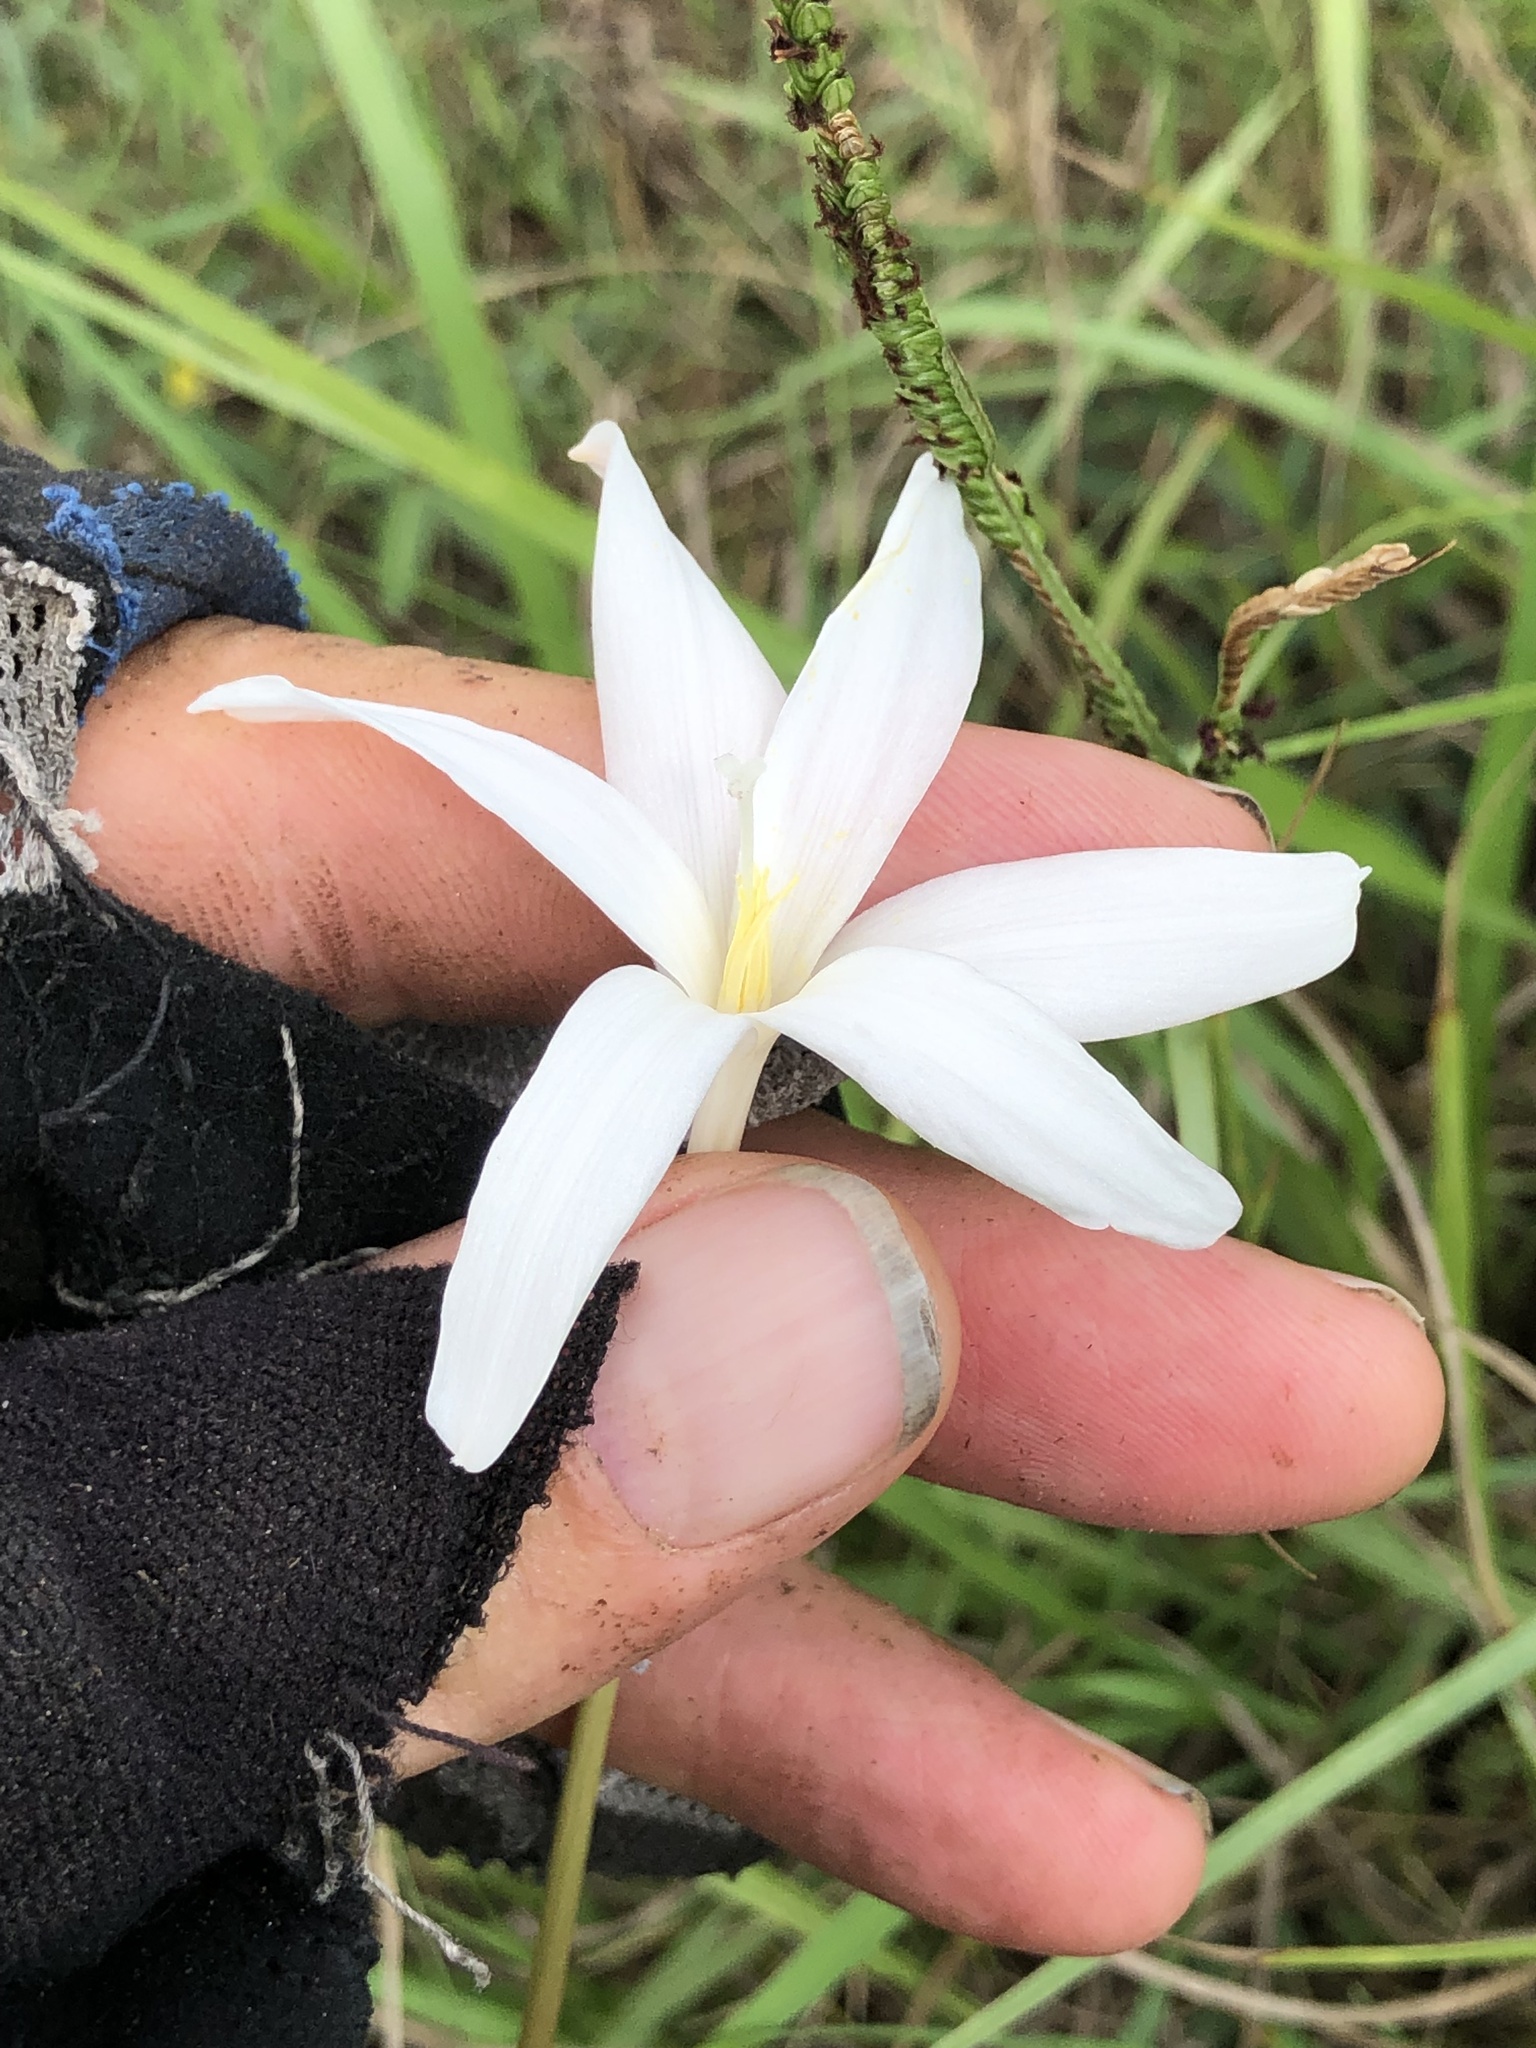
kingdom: Plantae
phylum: Tracheophyta
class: Liliopsida
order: Asparagales
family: Amaryllidaceae
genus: Zephyranthes
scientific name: Zephyranthes traubii
